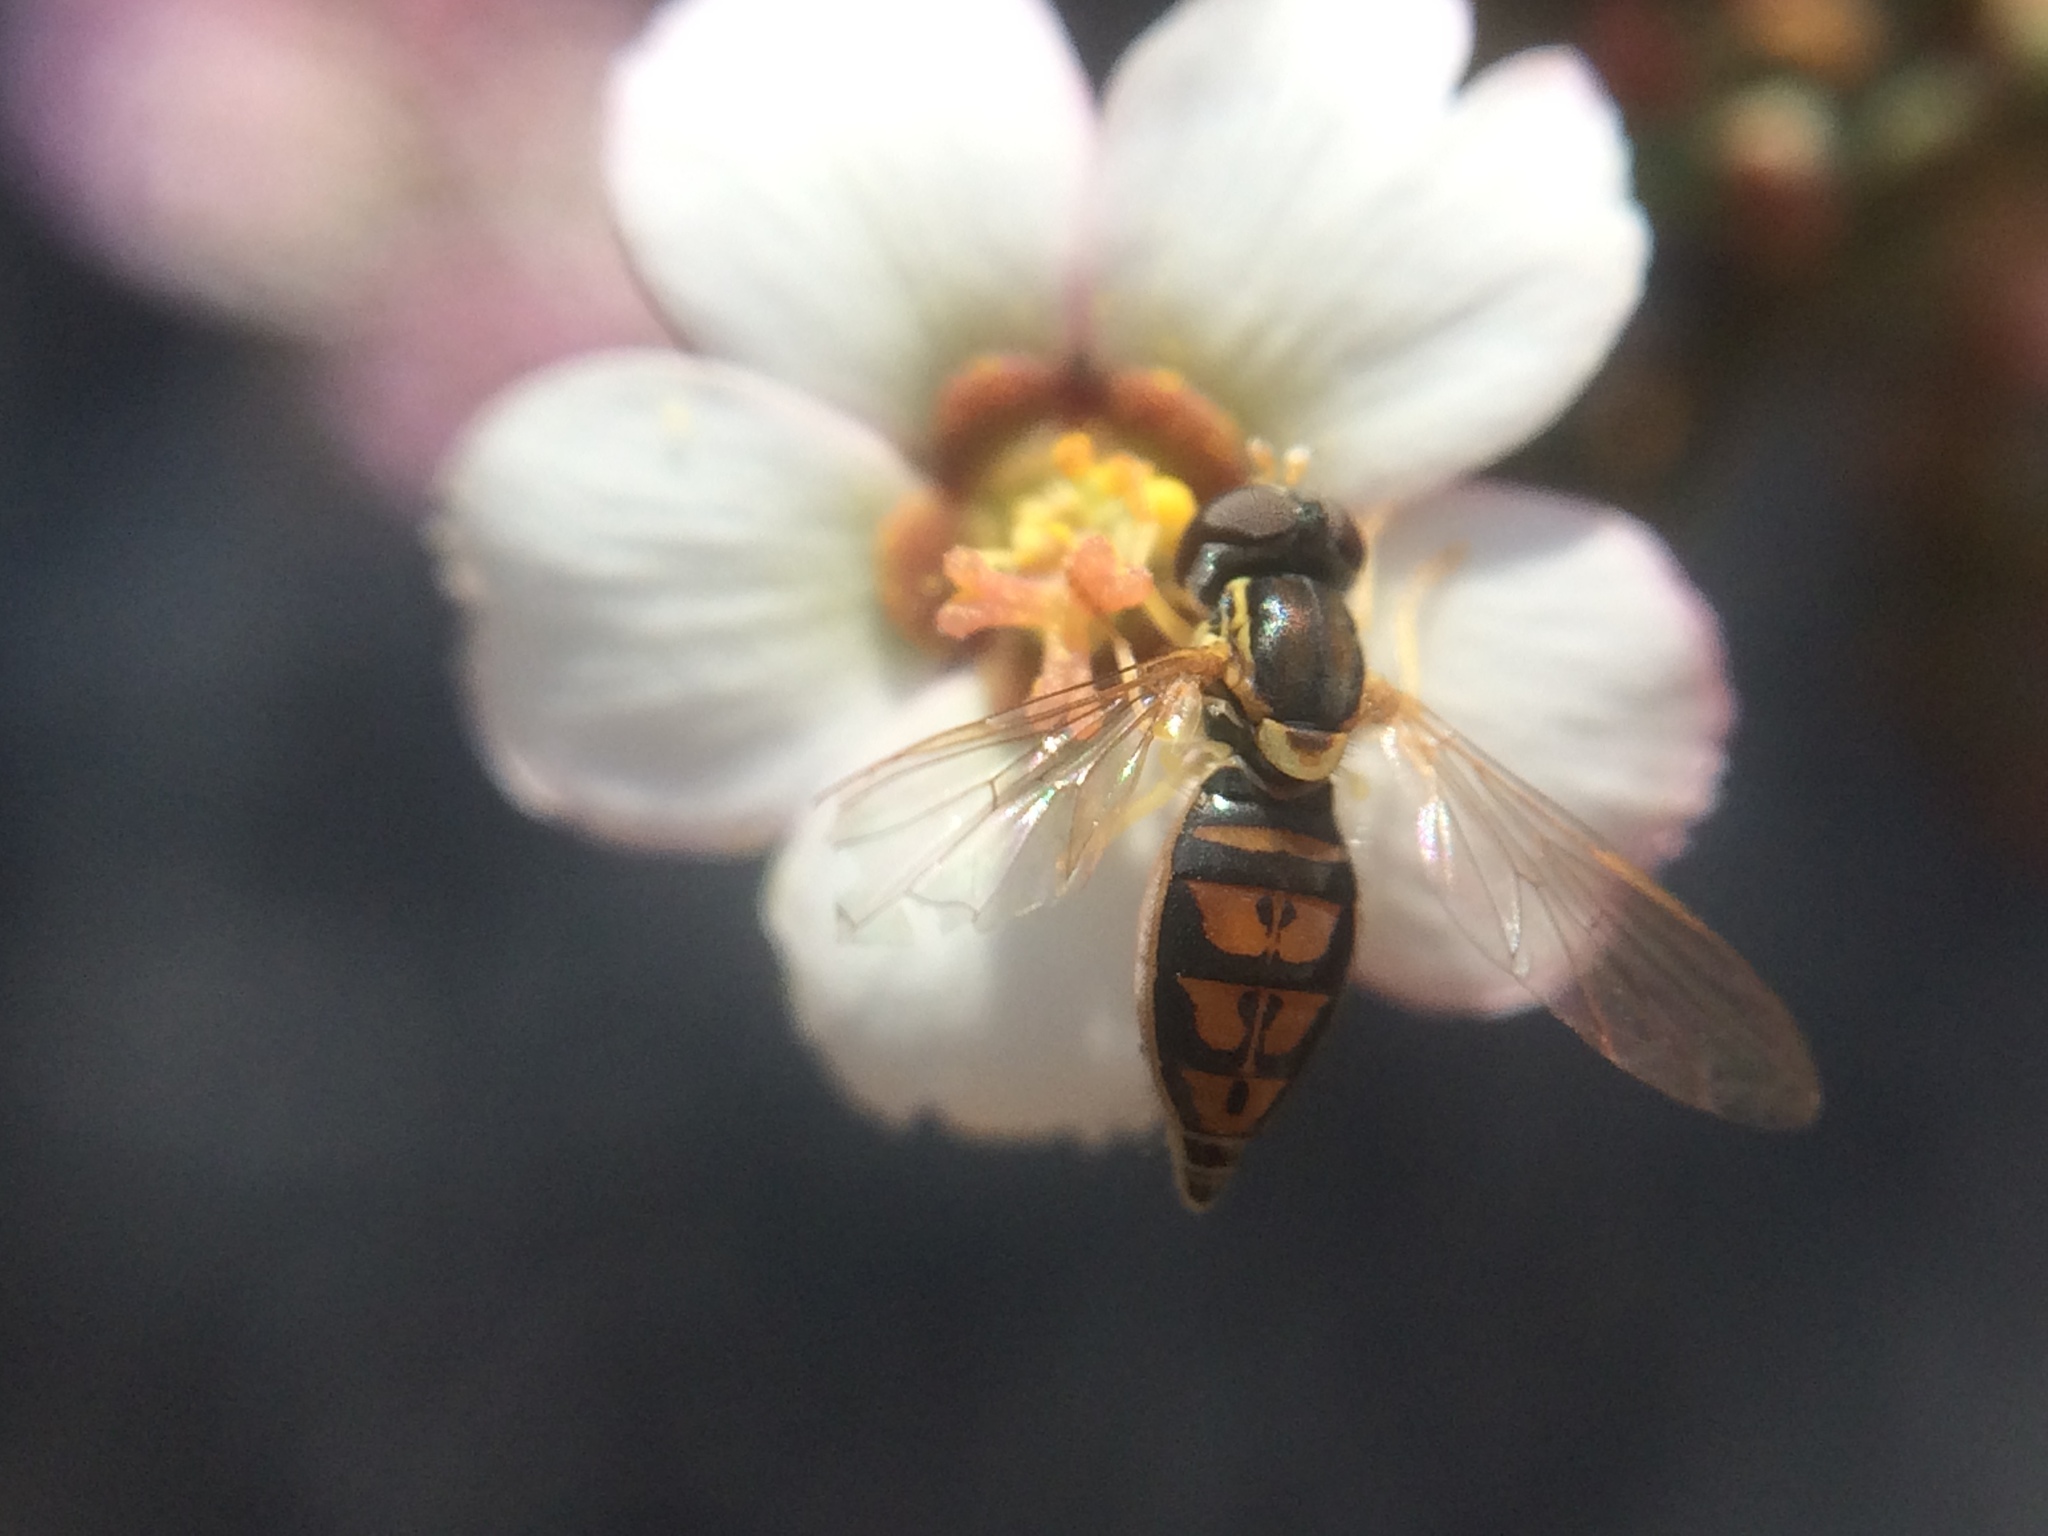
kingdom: Animalia
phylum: Arthropoda
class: Insecta
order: Diptera
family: Syrphidae
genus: Toxomerus
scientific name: Toxomerus marginatus
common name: Syrphid fly
